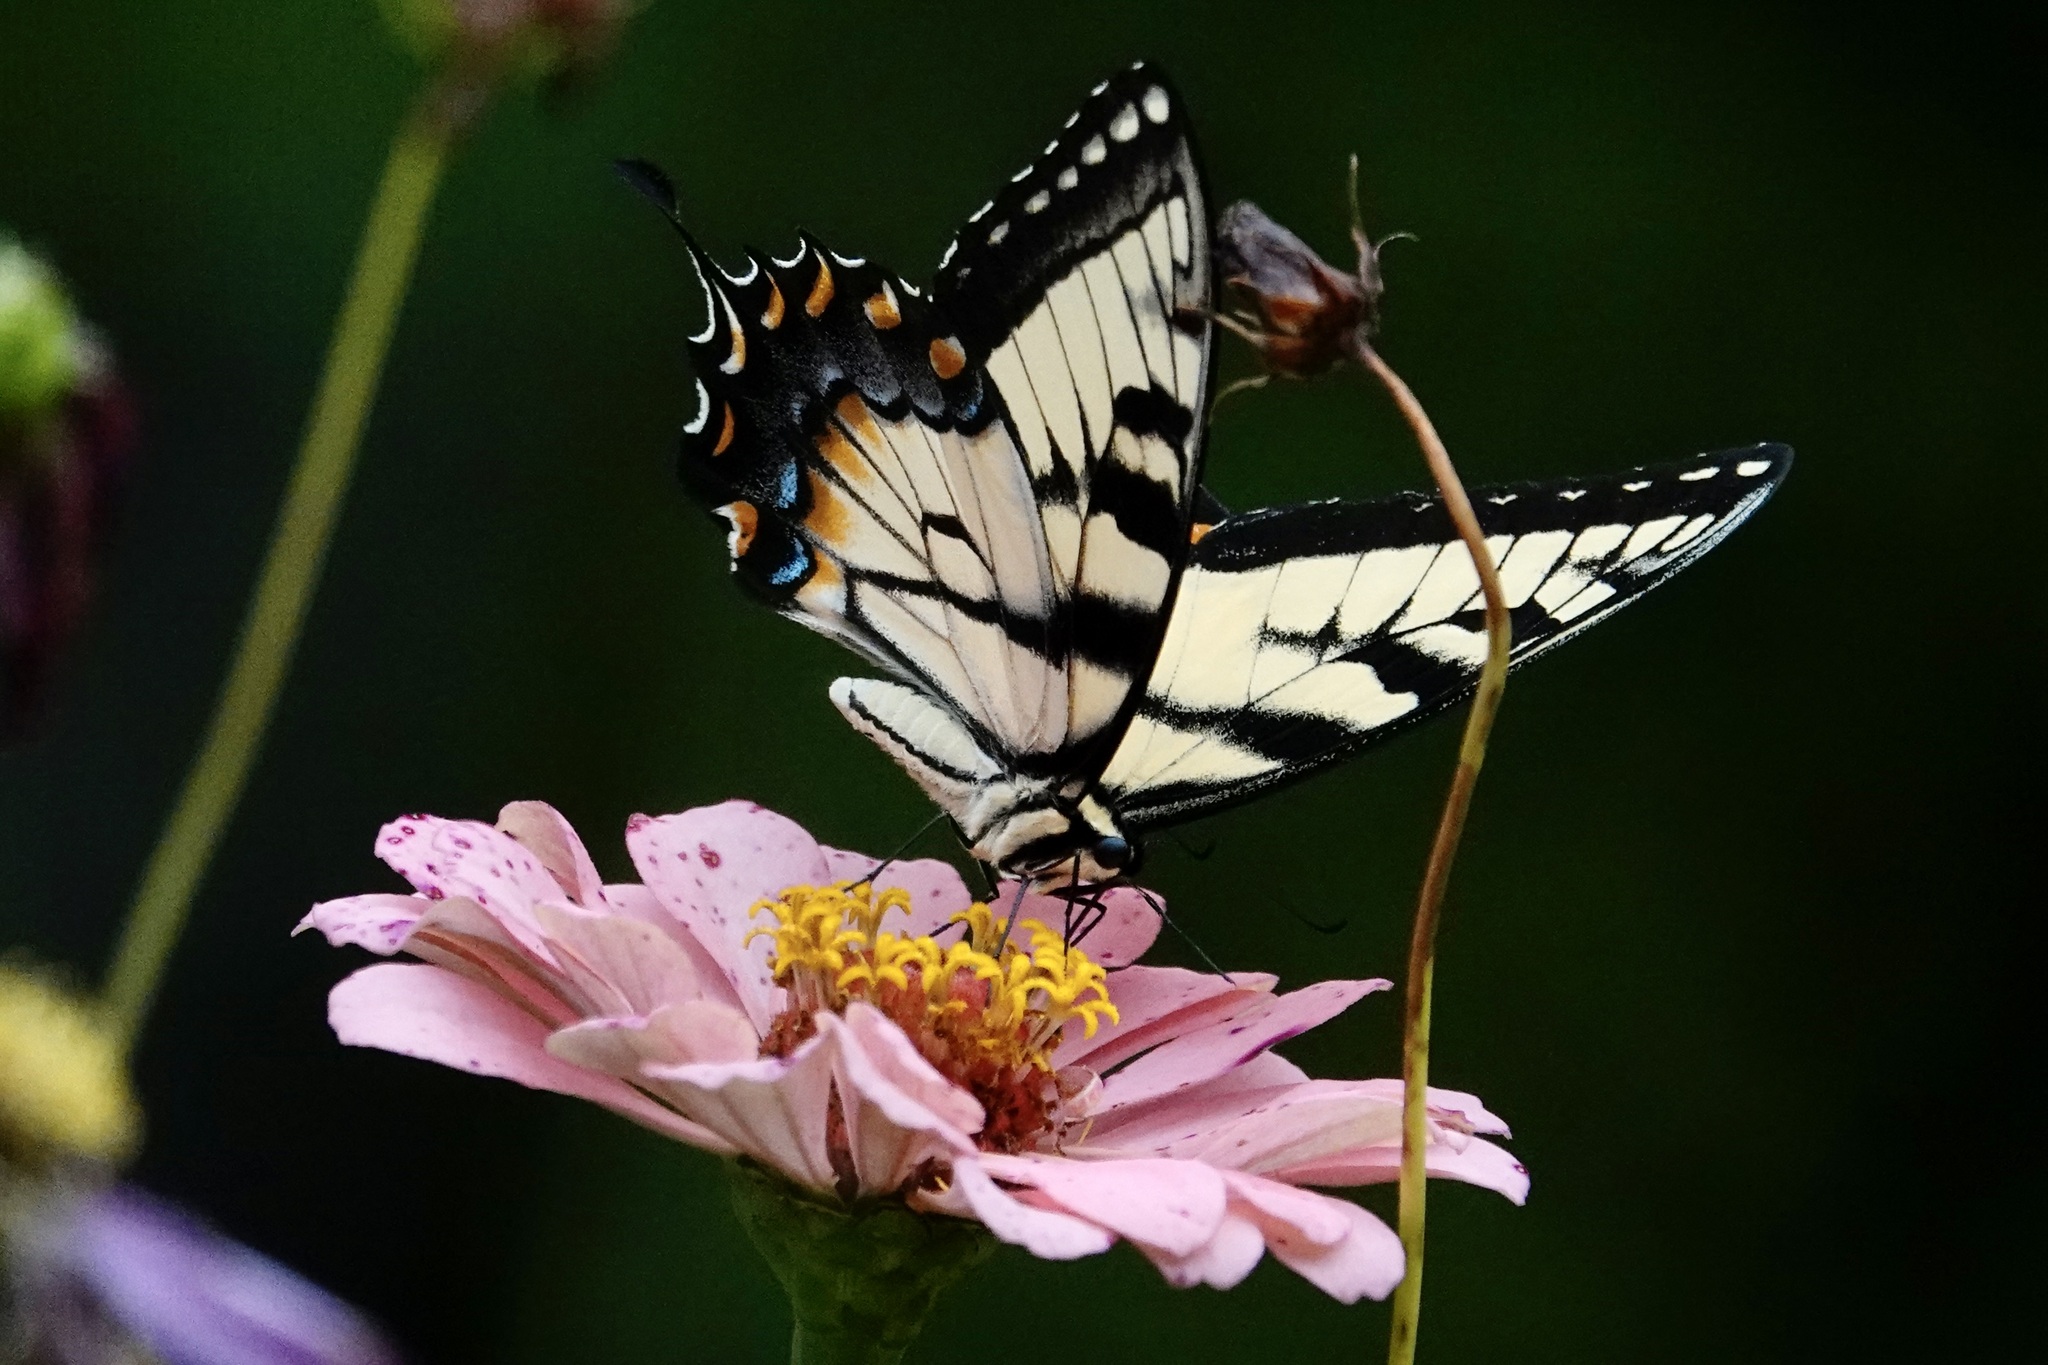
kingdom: Animalia
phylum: Arthropoda
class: Insecta
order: Lepidoptera
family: Papilionidae
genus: Papilio
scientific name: Papilio glaucus
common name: Tiger swallowtail
